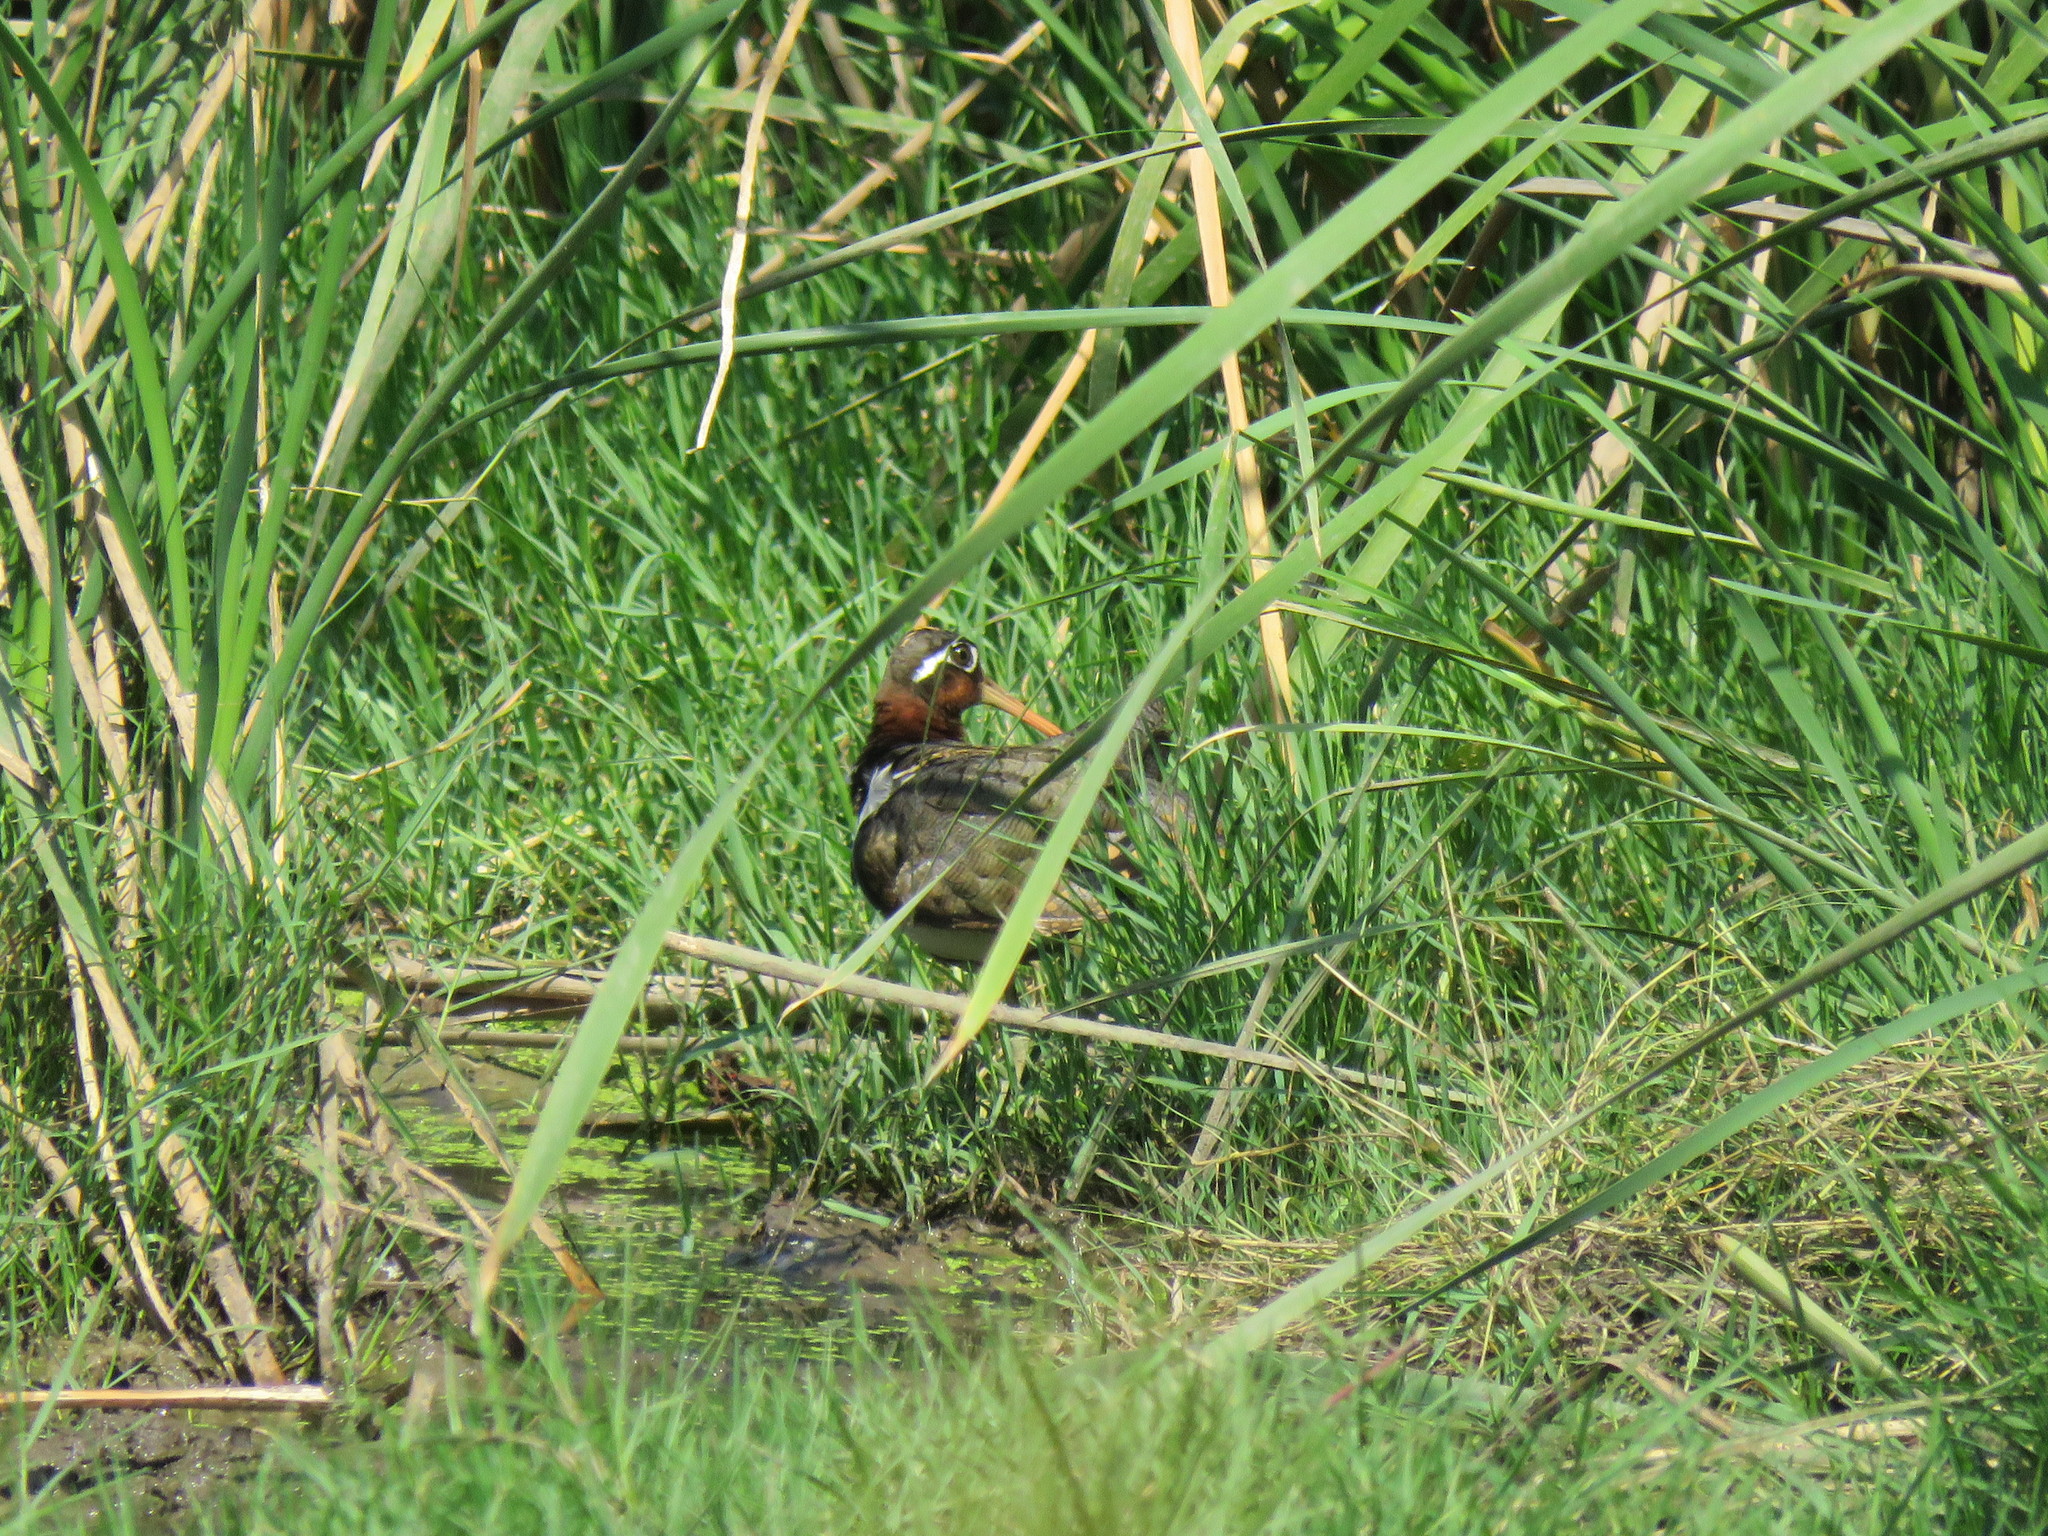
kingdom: Animalia
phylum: Chordata
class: Aves
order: Charadriiformes
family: Rostratulidae
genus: Rostratula
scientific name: Rostratula benghalensis
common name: Greater painted-snipe
